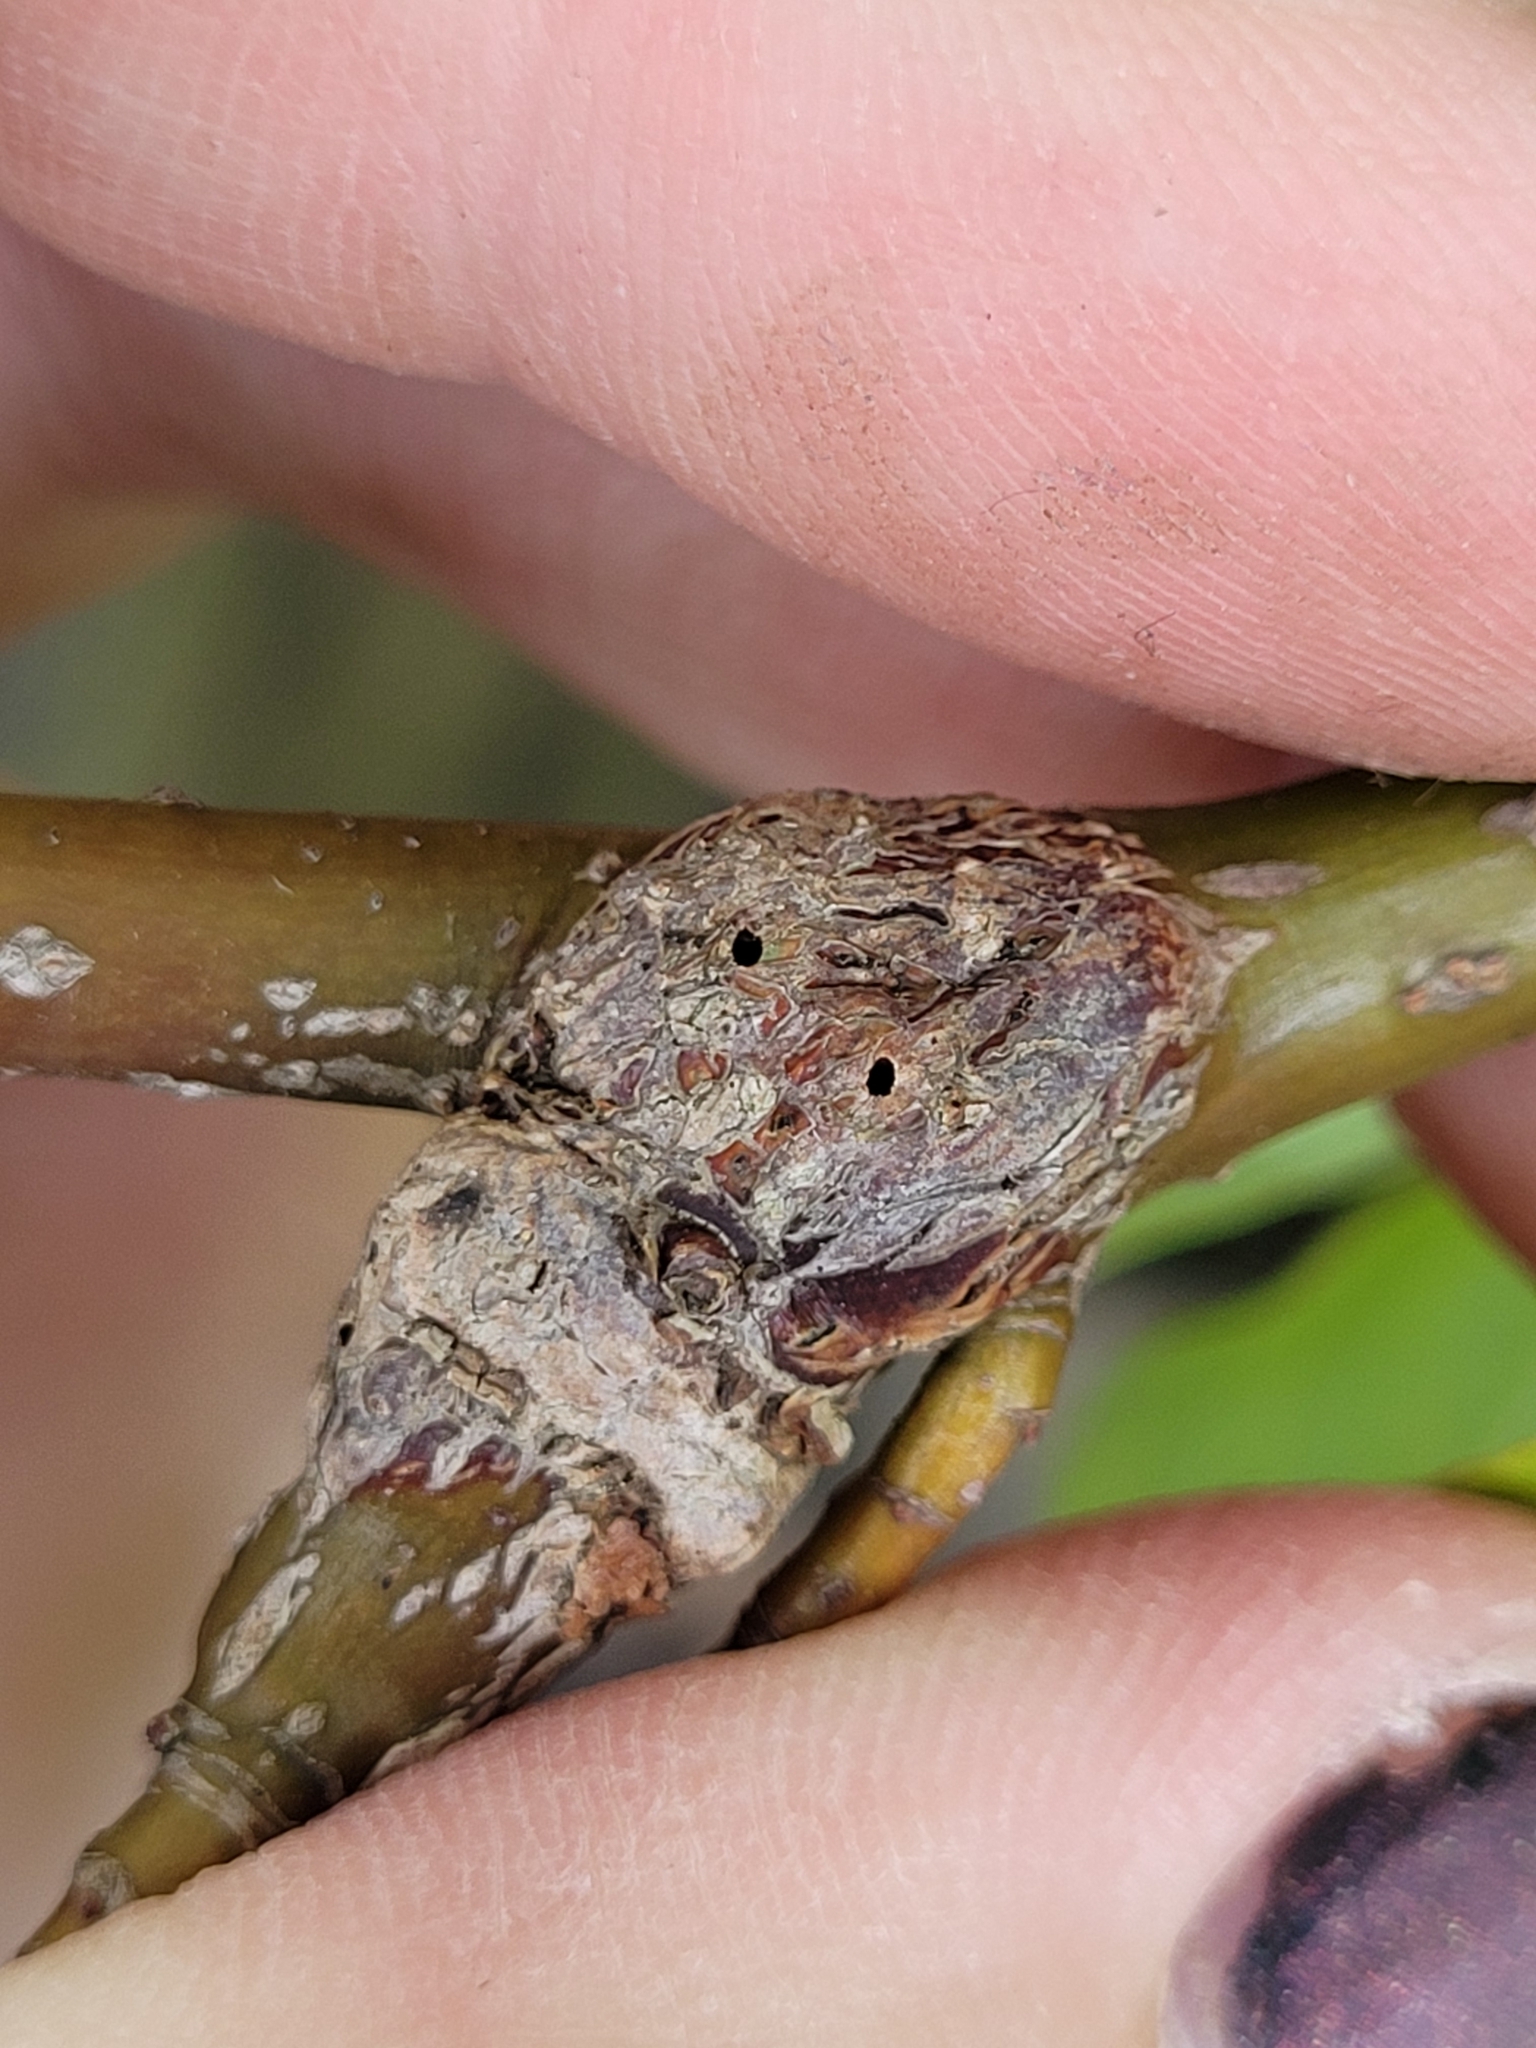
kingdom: Animalia
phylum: Arthropoda
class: Insecta
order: Diptera
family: Cecidomyiidae
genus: Neolasioptera
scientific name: Neolasioptera cornicola
